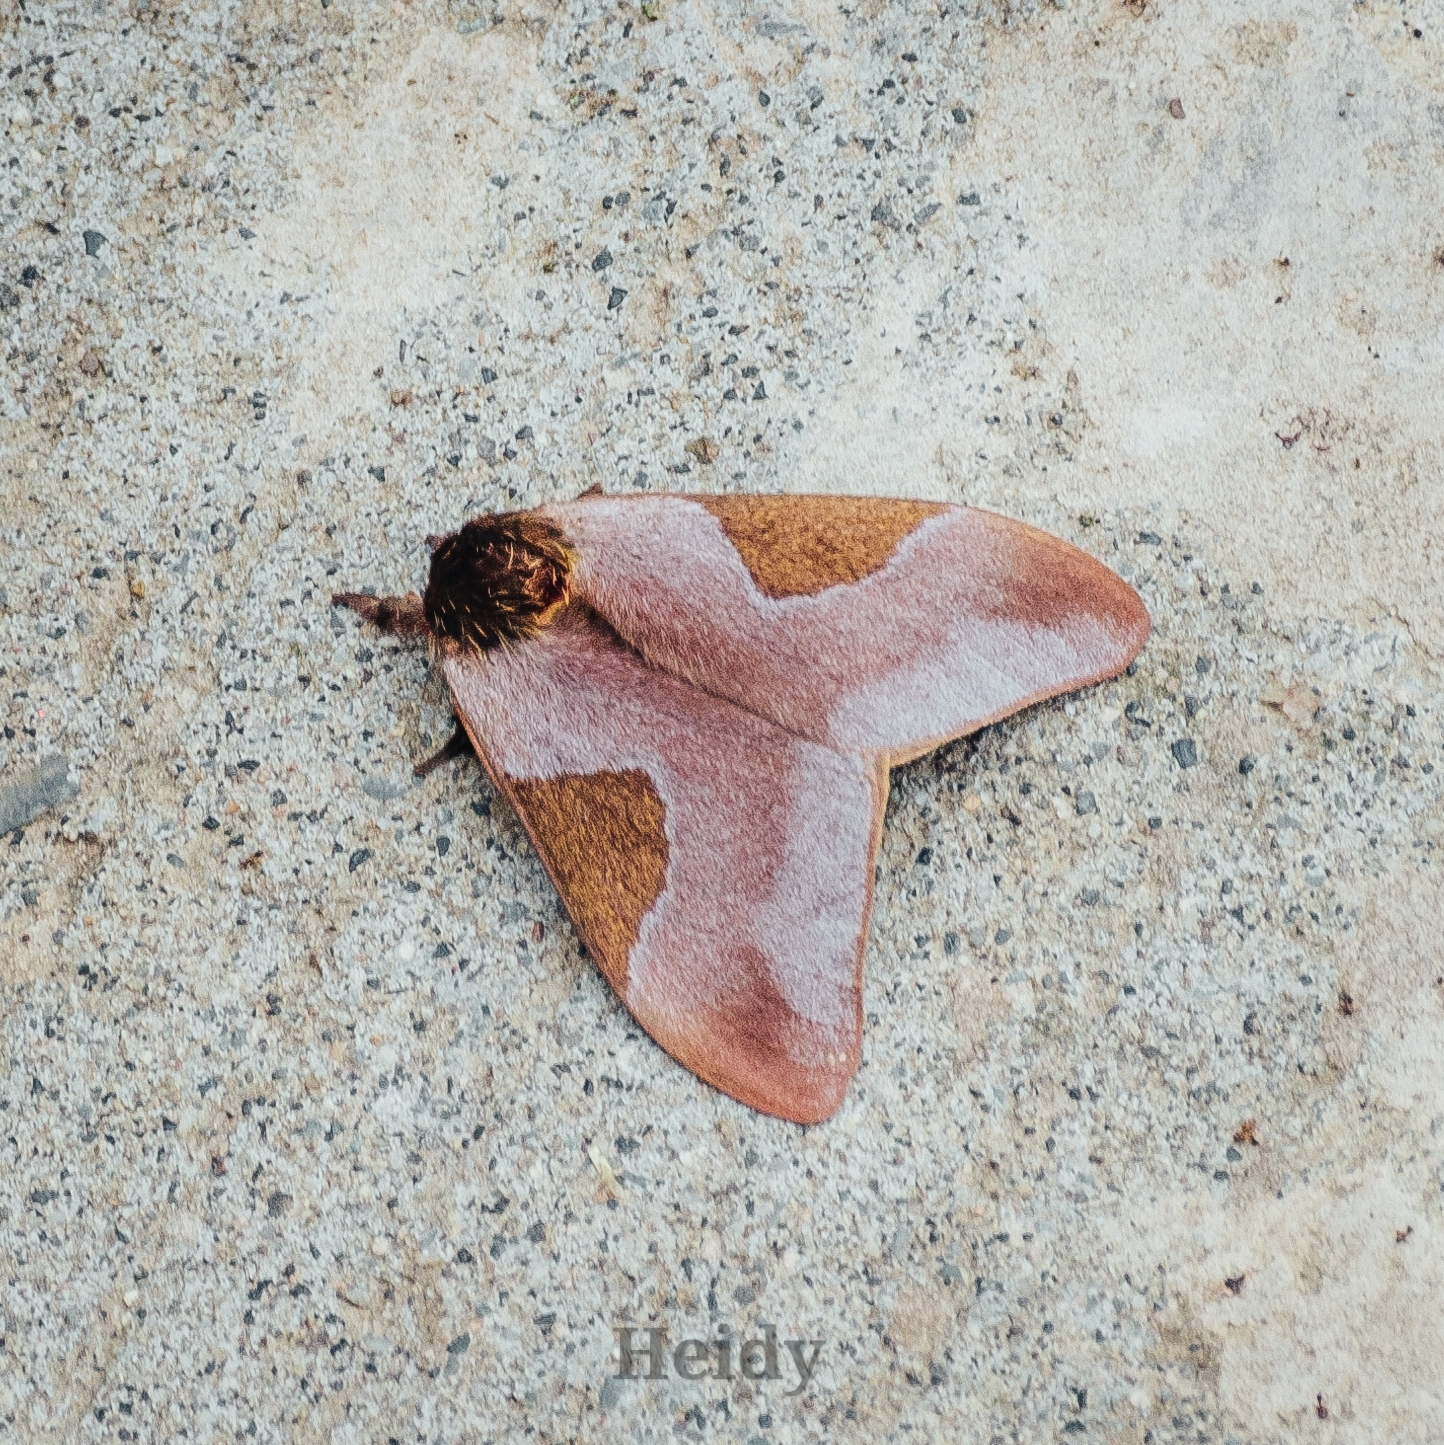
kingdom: Animalia
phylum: Arthropoda
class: Insecta
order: Lepidoptera
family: Saturniidae
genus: Dirphia
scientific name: Dirphia aviluisiana
